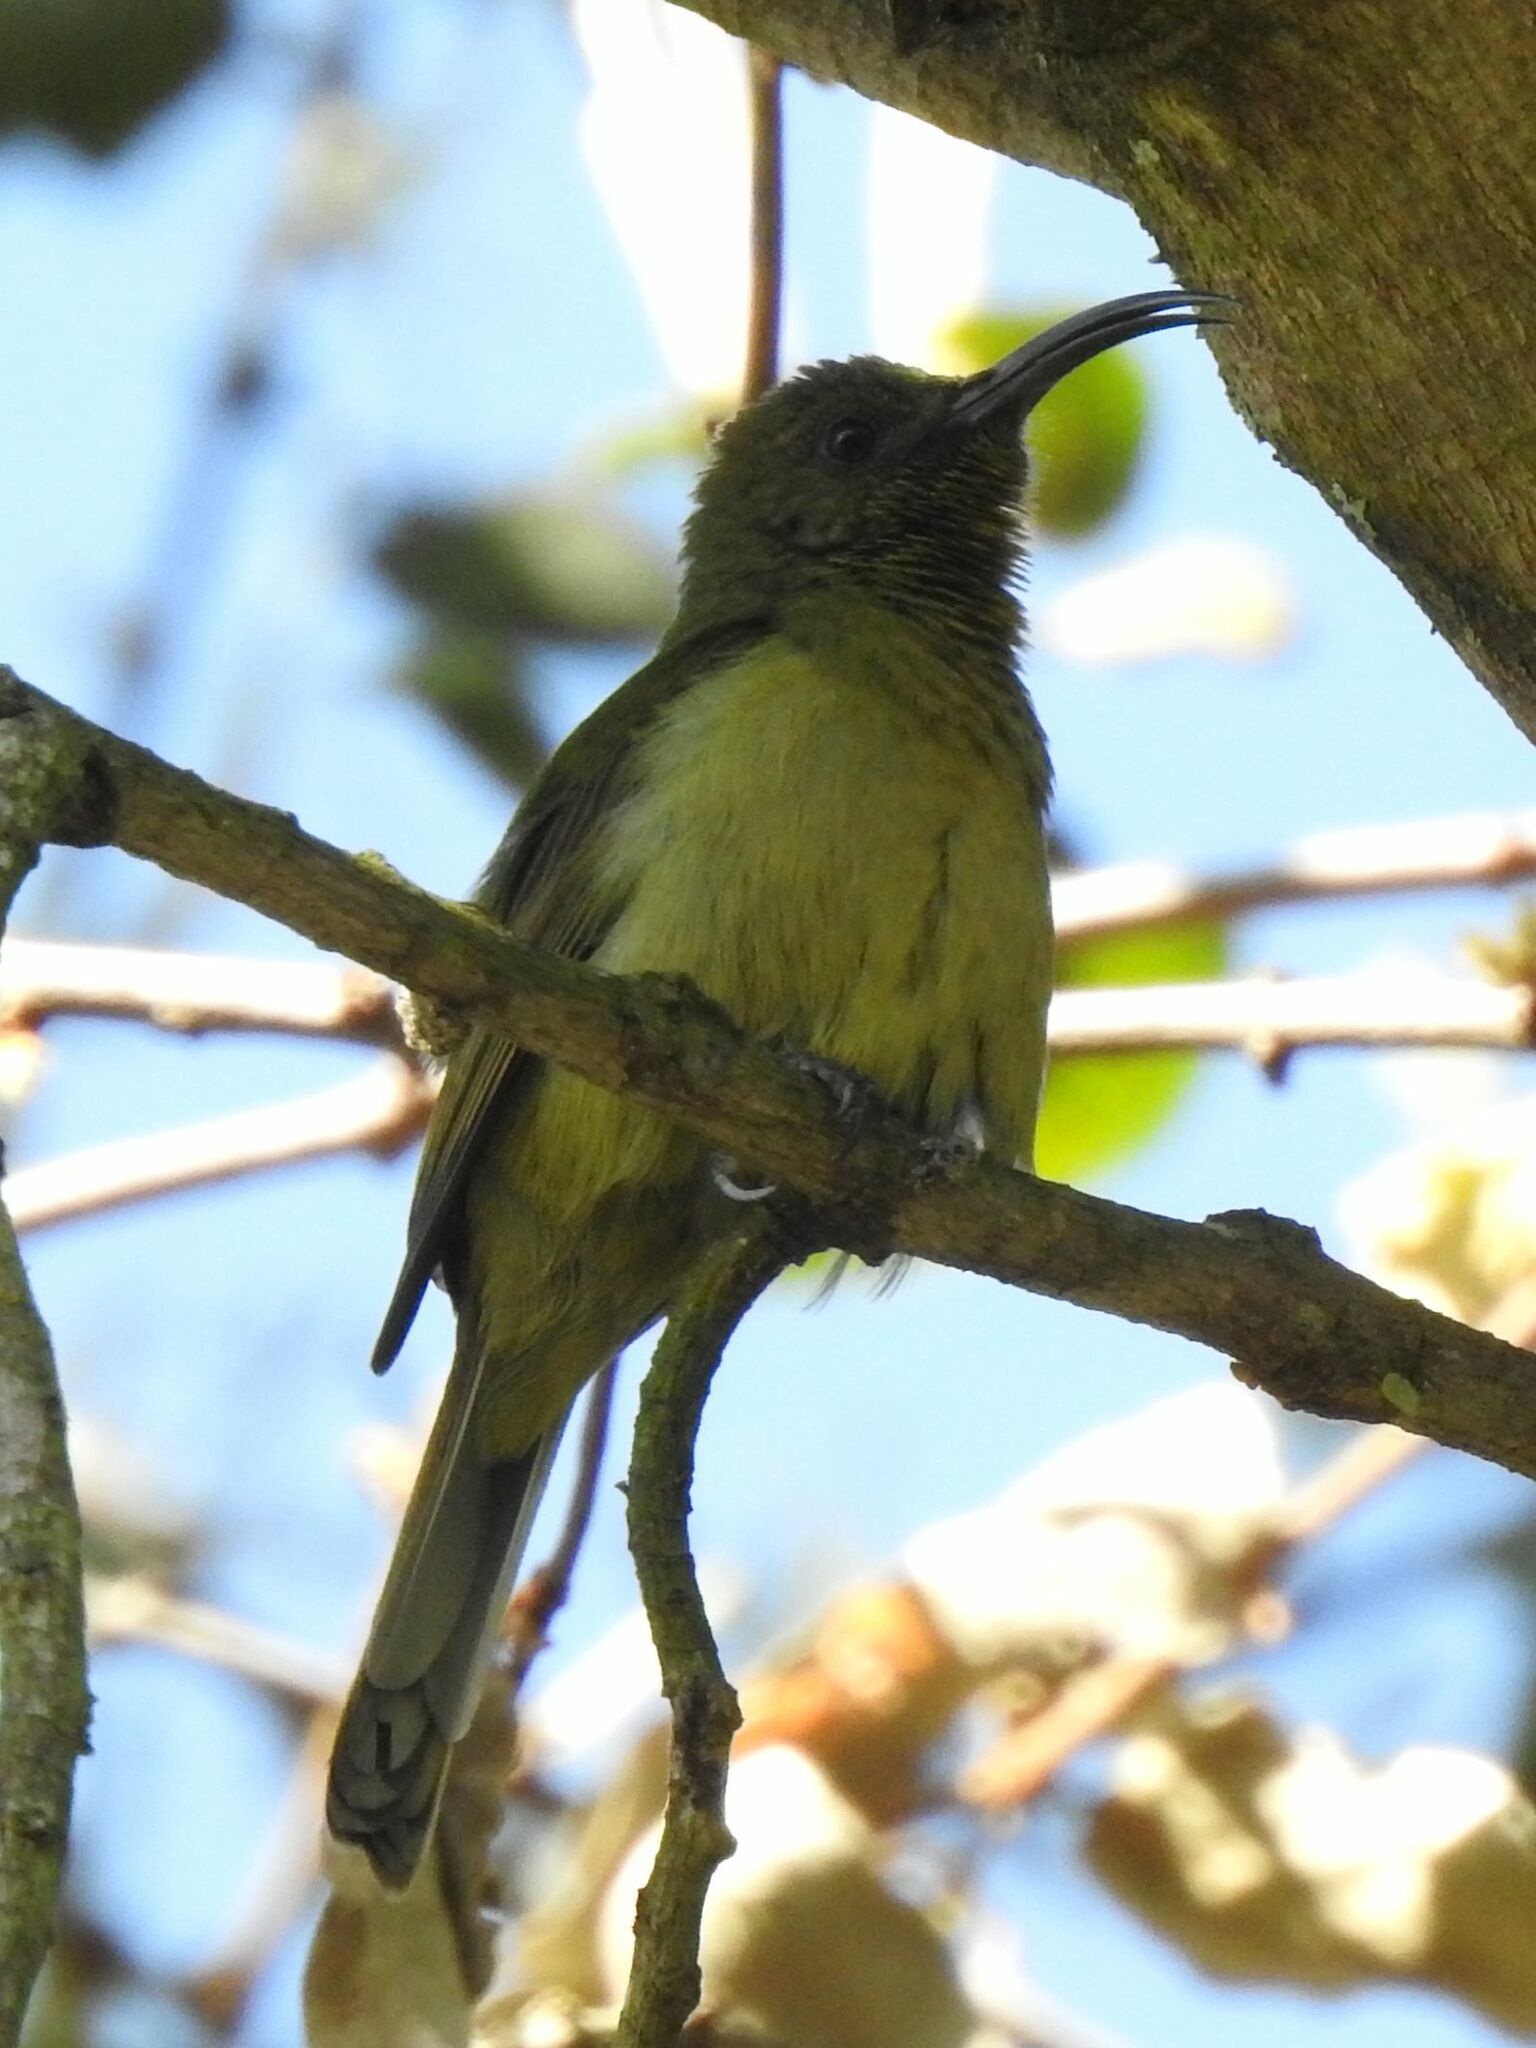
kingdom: Animalia
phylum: Chordata
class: Aves
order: Passeriformes
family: Nectariniidae
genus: Cyanomitra
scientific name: Cyanomitra olivacea
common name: Olive sunbird
